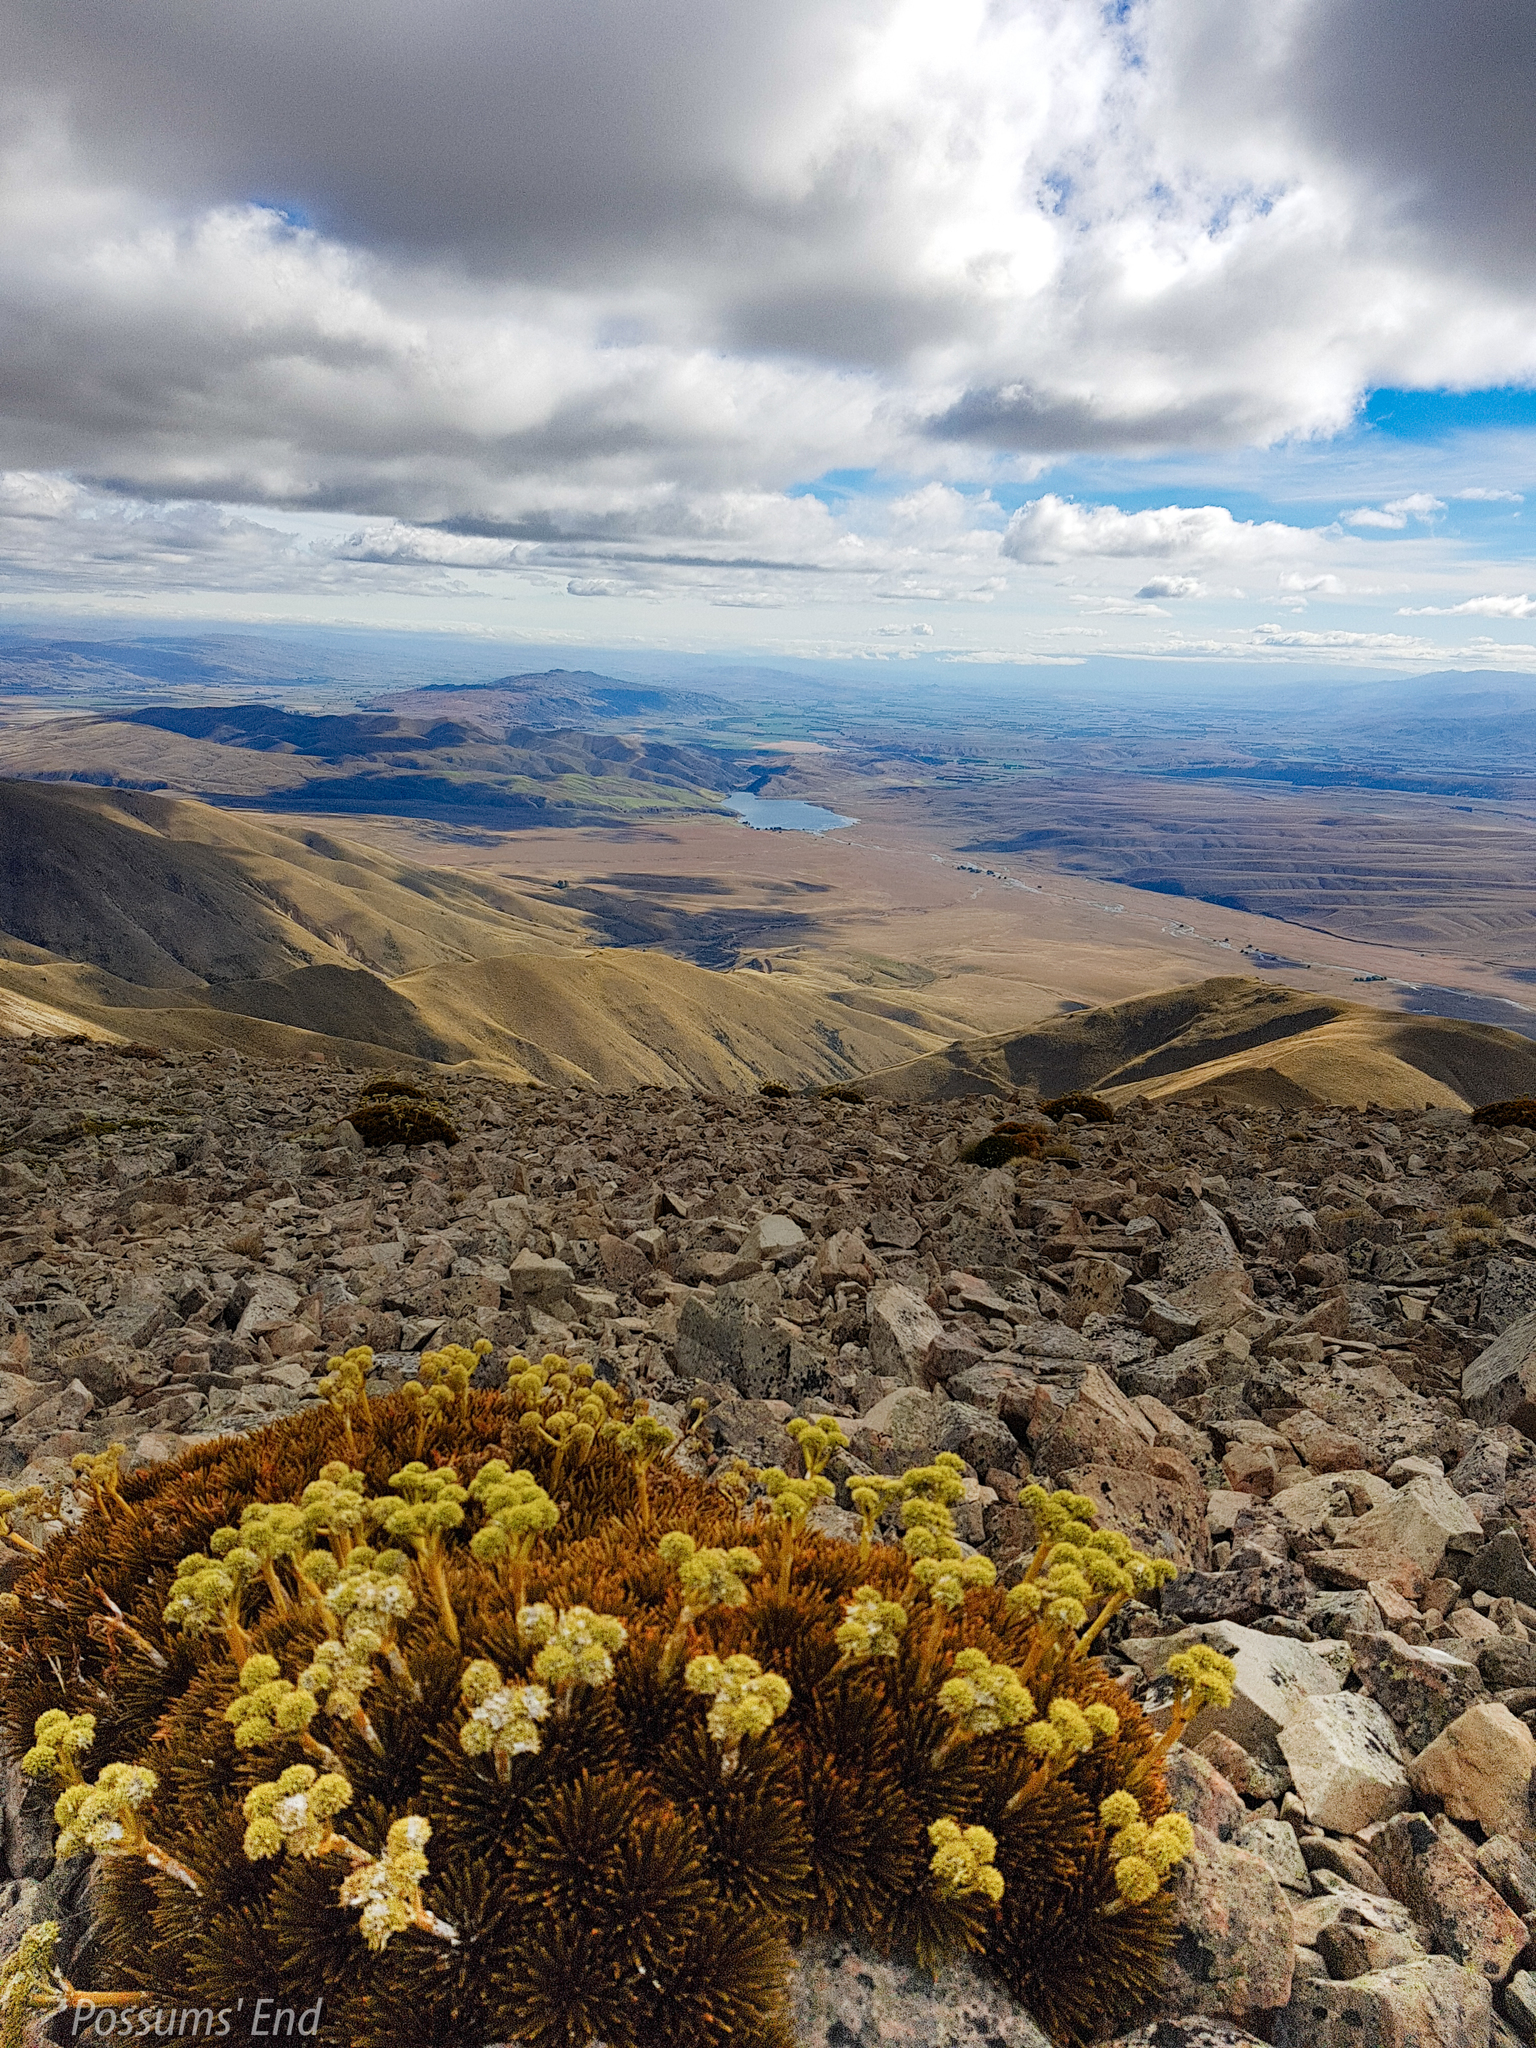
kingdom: Plantae
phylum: Tracheophyta
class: Magnoliopsida
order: Apiales
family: Apiaceae
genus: Aciphylla
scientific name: Aciphylla dobsonii
